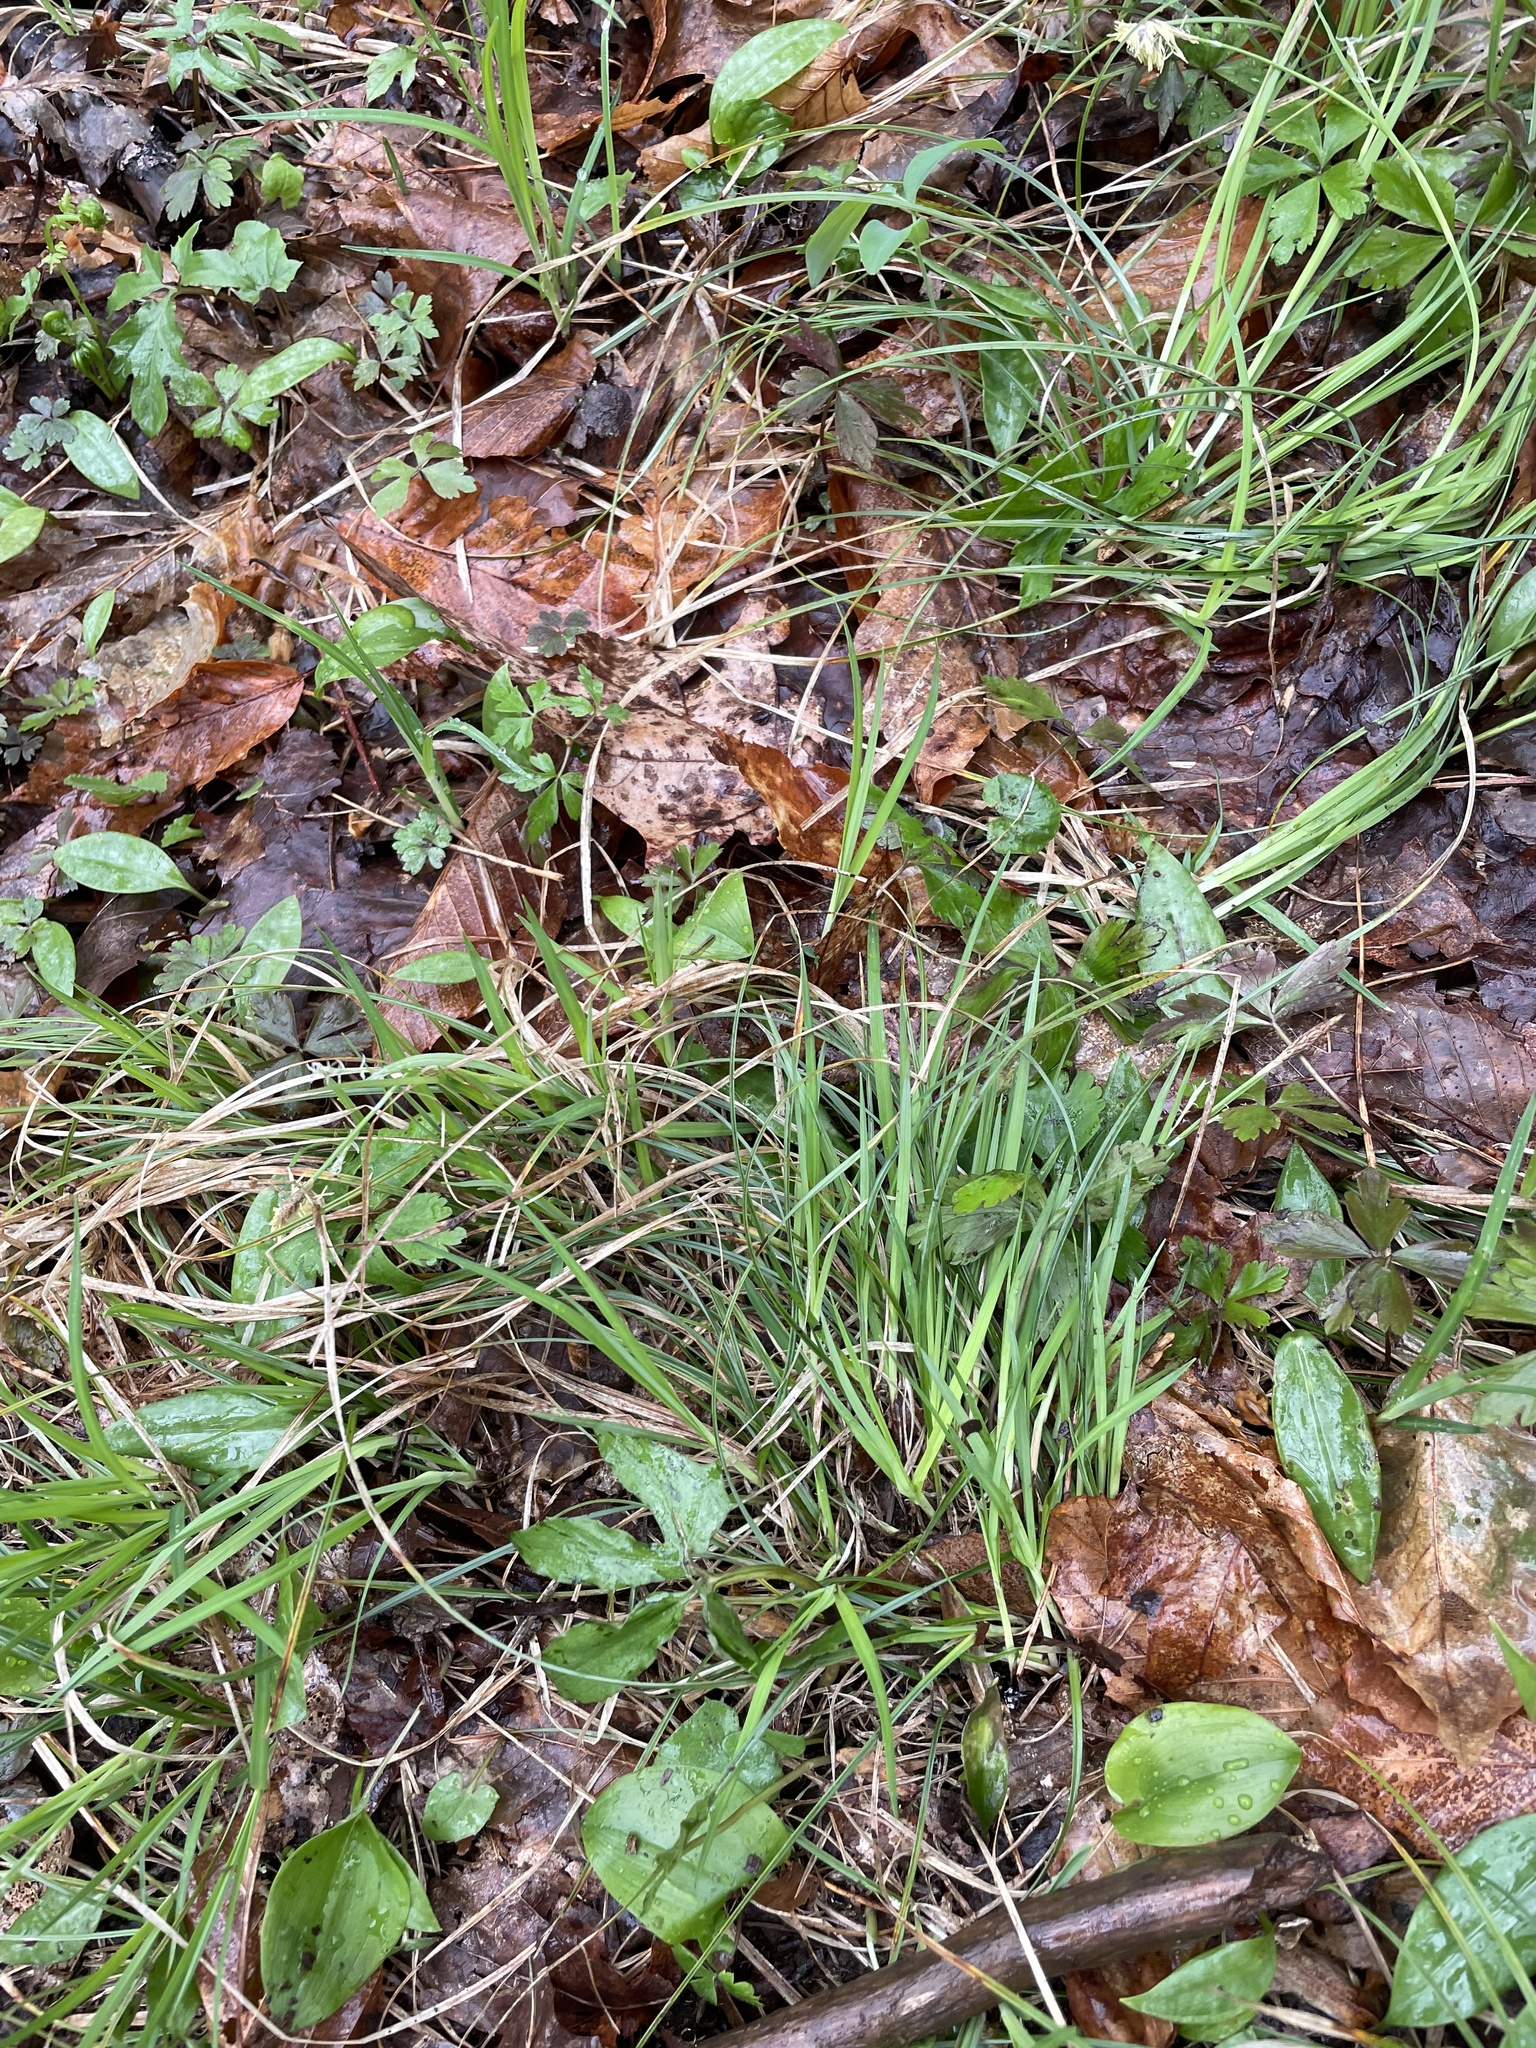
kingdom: Plantae
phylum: Tracheophyta
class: Liliopsida
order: Poales
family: Cyperaceae
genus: Carex
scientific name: Carex purpurifera
